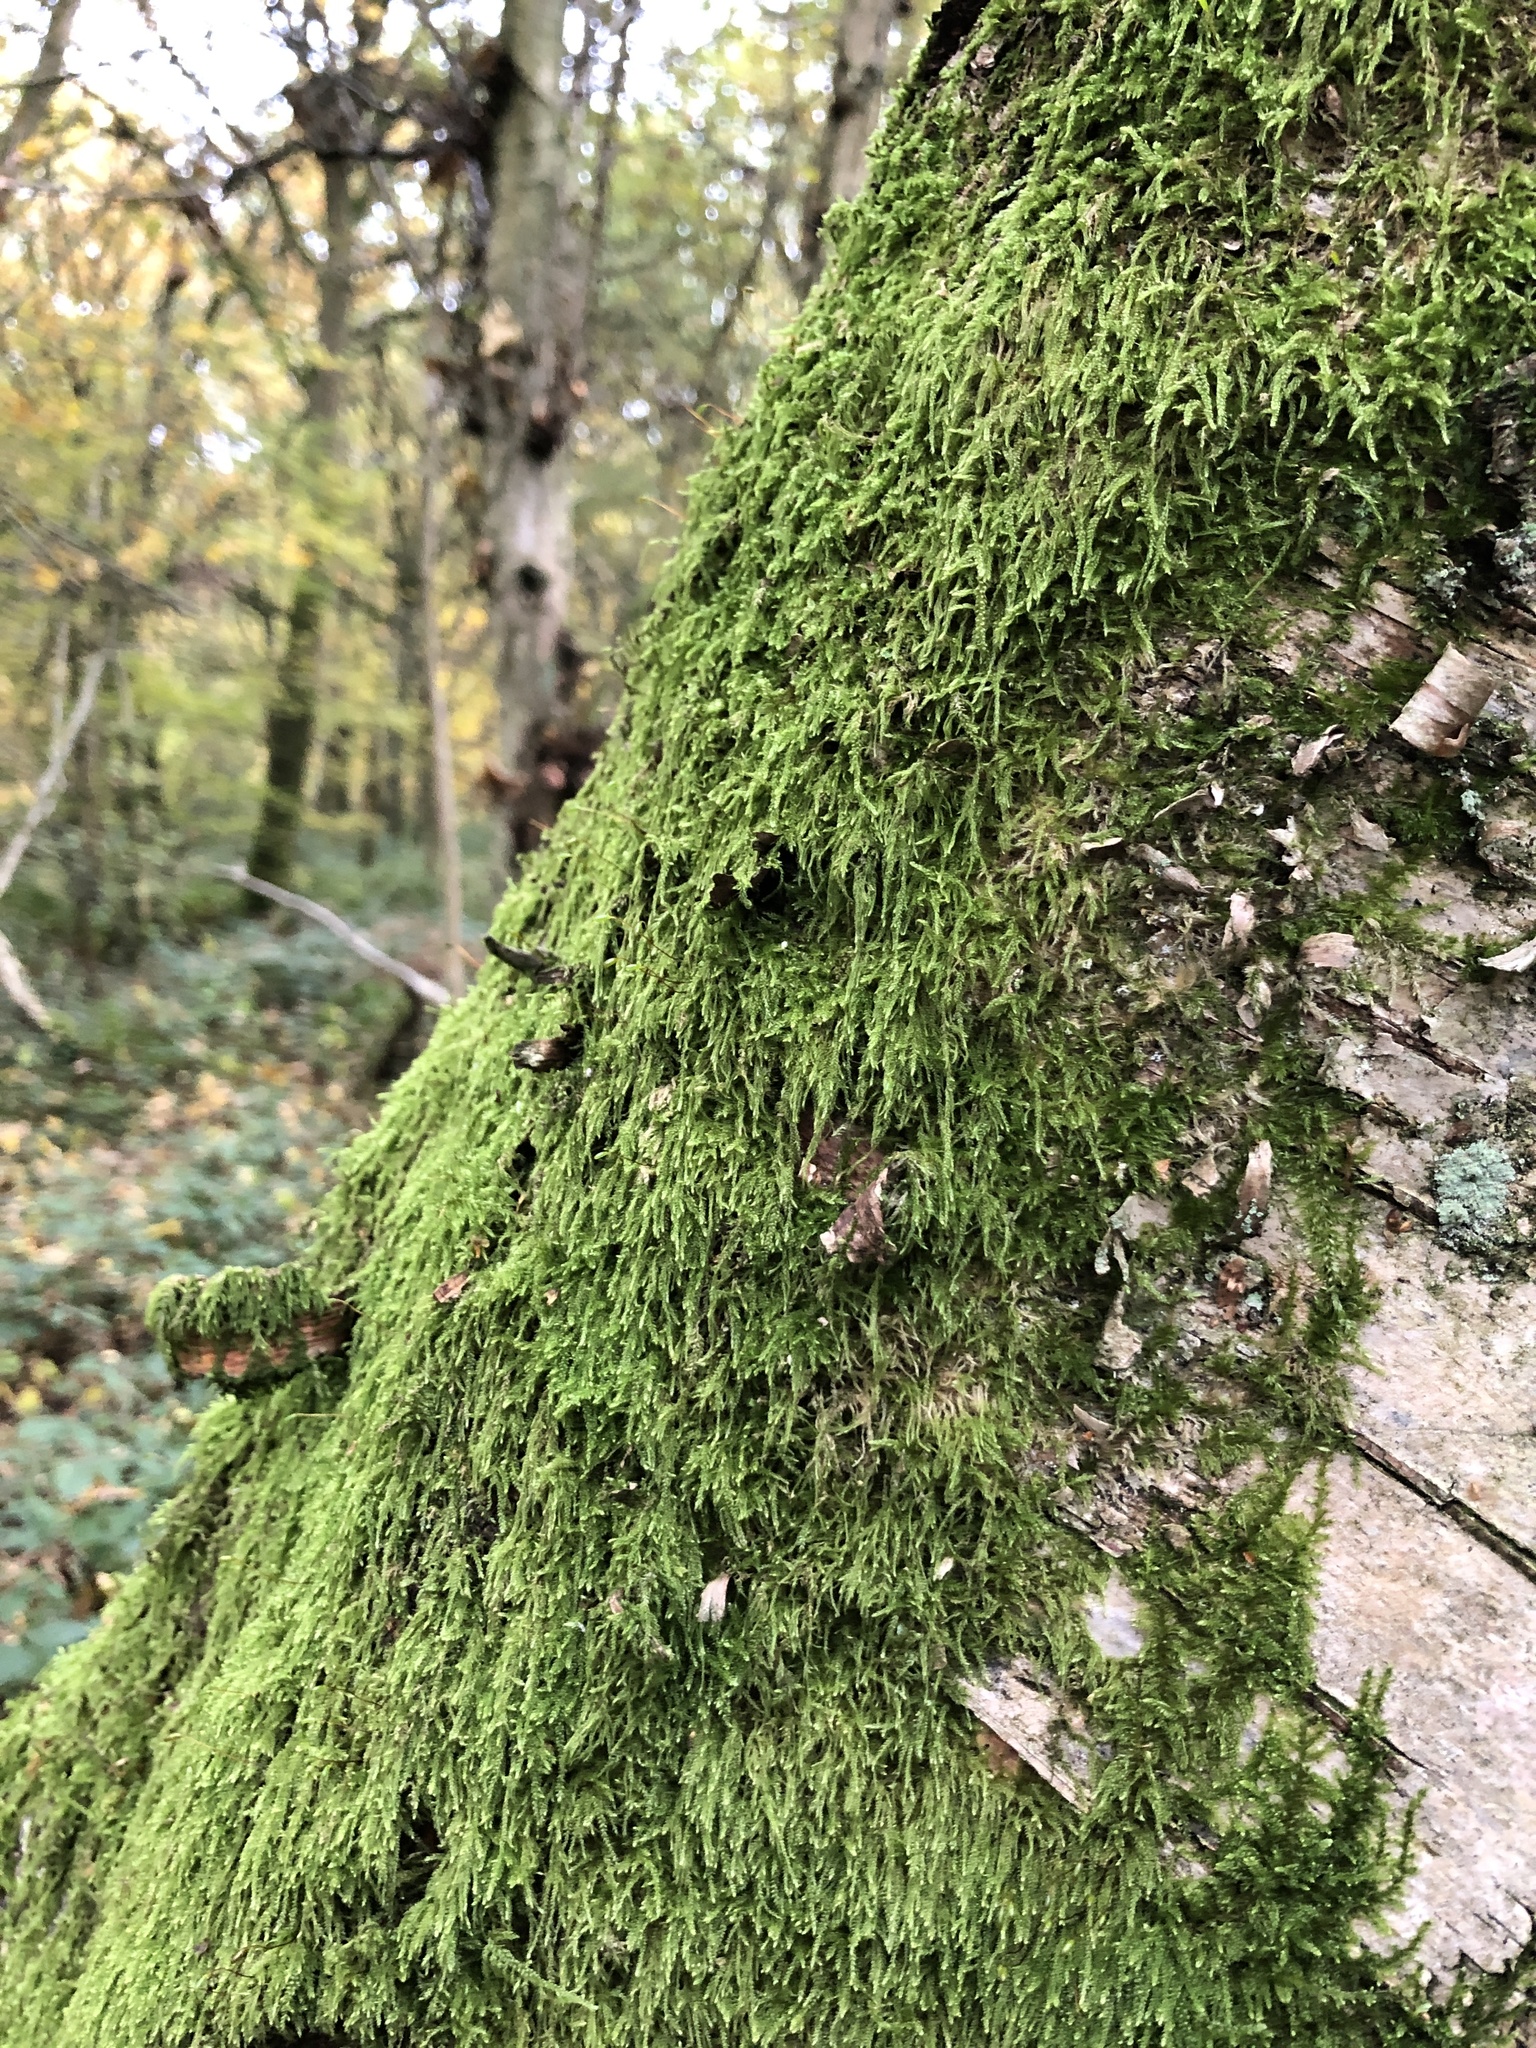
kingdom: Plantae
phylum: Bryophyta
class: Bryopsida
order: Hypnales
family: Hypnaceae
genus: Hypnum
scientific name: Hypnum andoi
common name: Ando's plait moss
